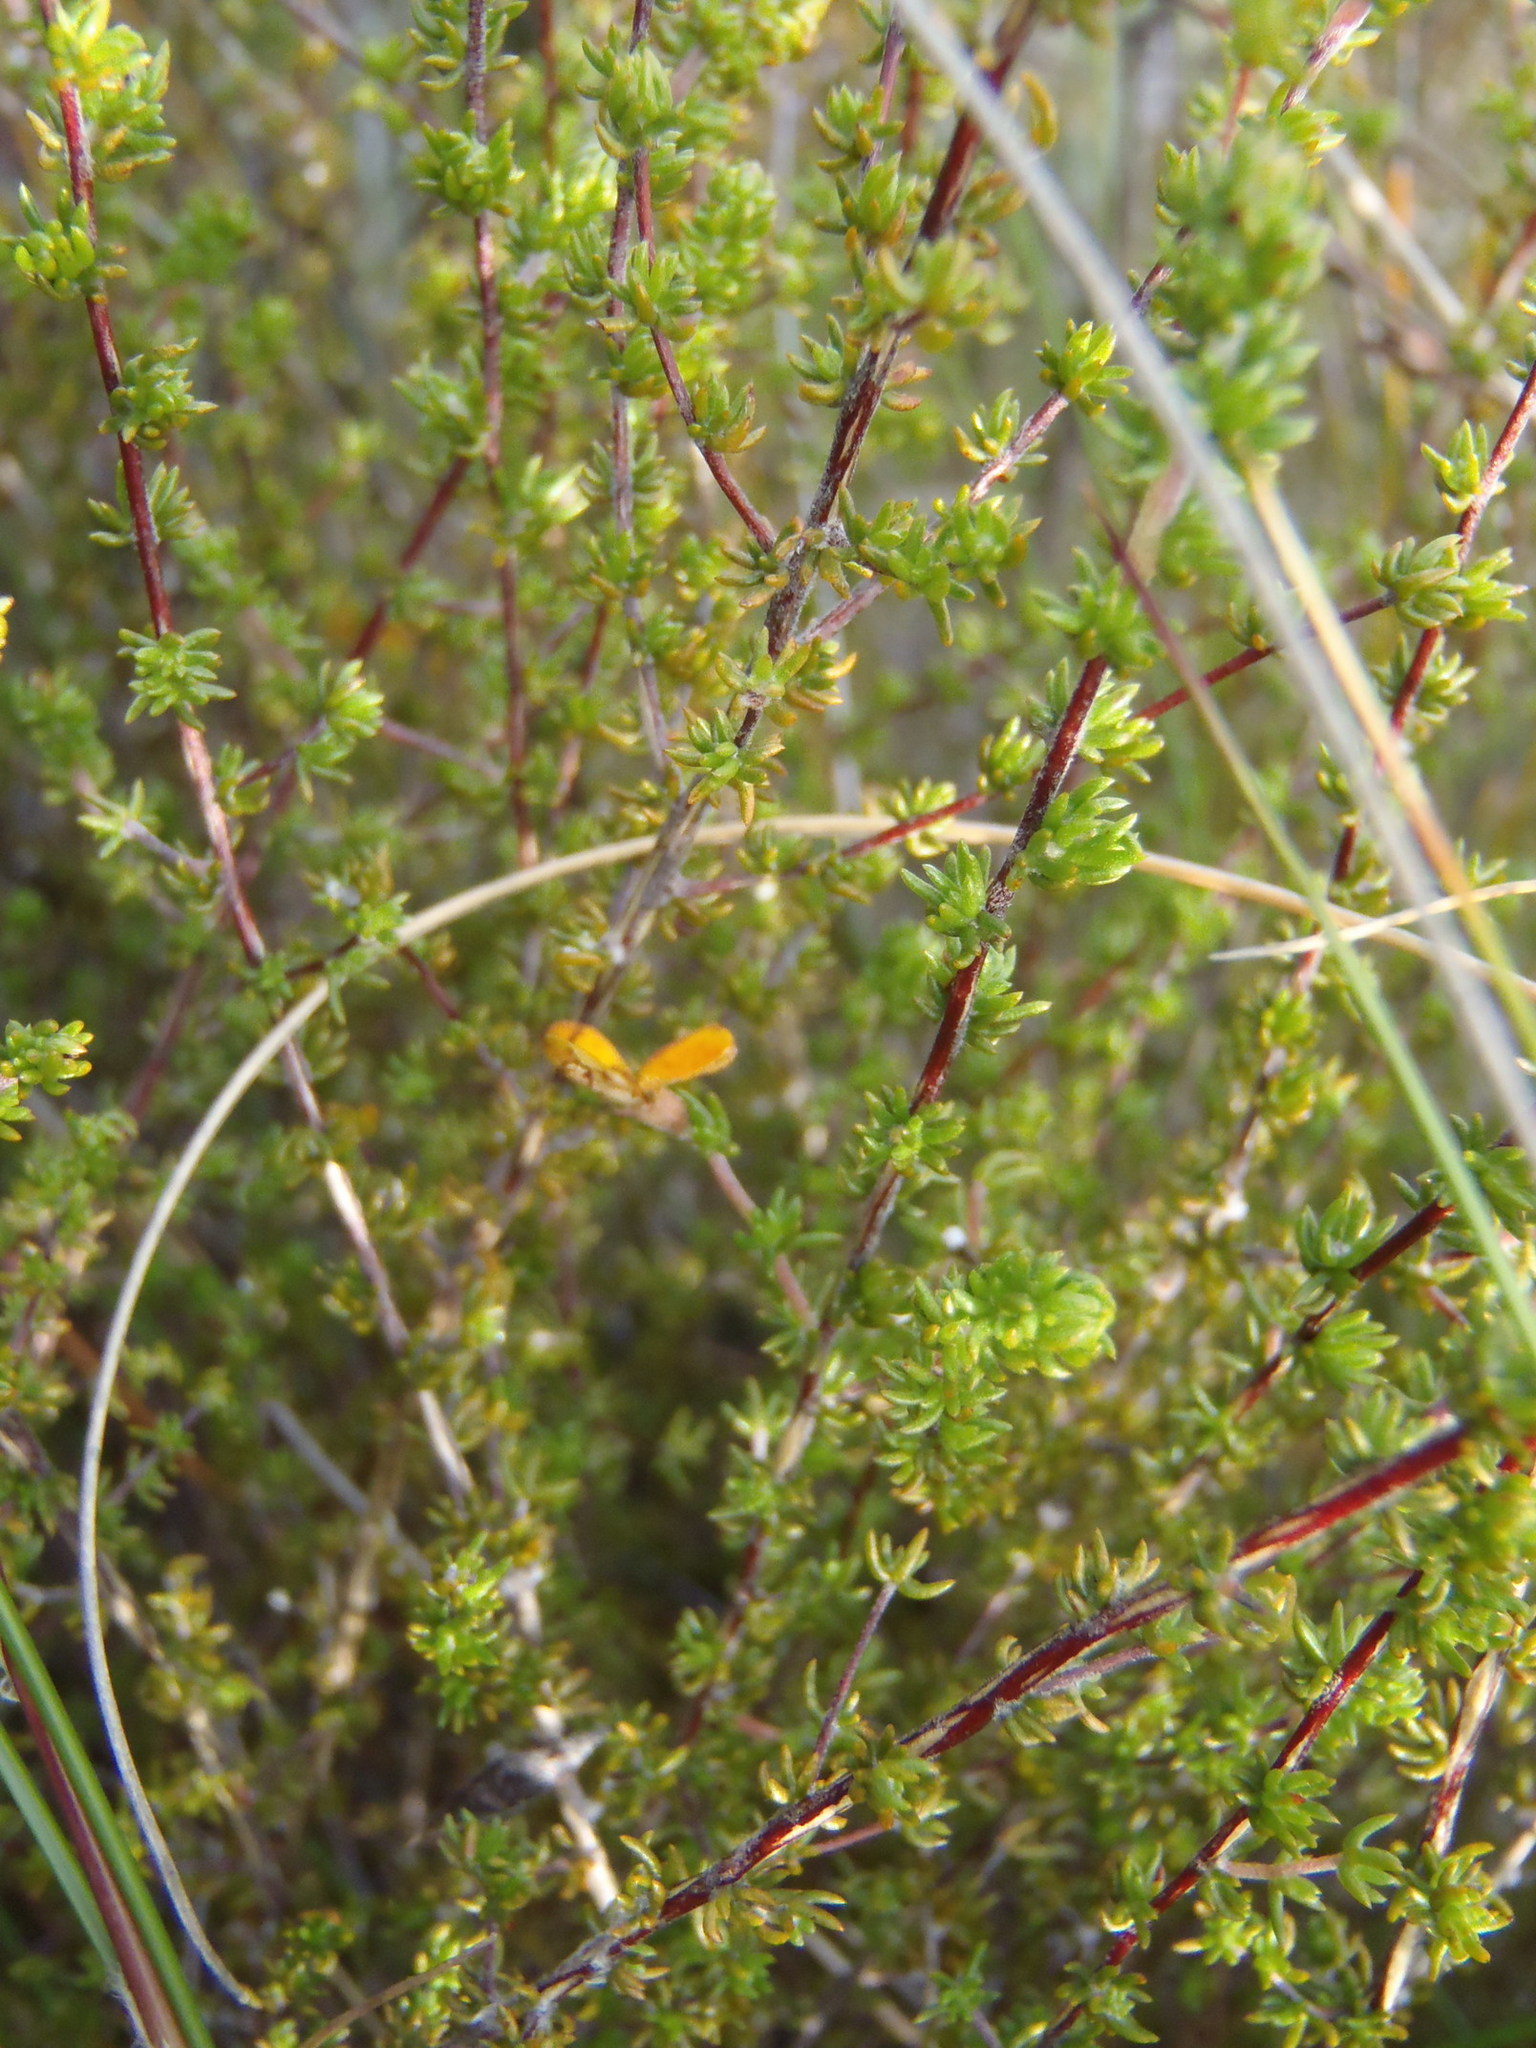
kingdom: Plantae
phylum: Tracheophyta
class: Magnoliopsida
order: Fabales
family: Fabaceae
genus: Aspalathus
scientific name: Aspalathus rubens
